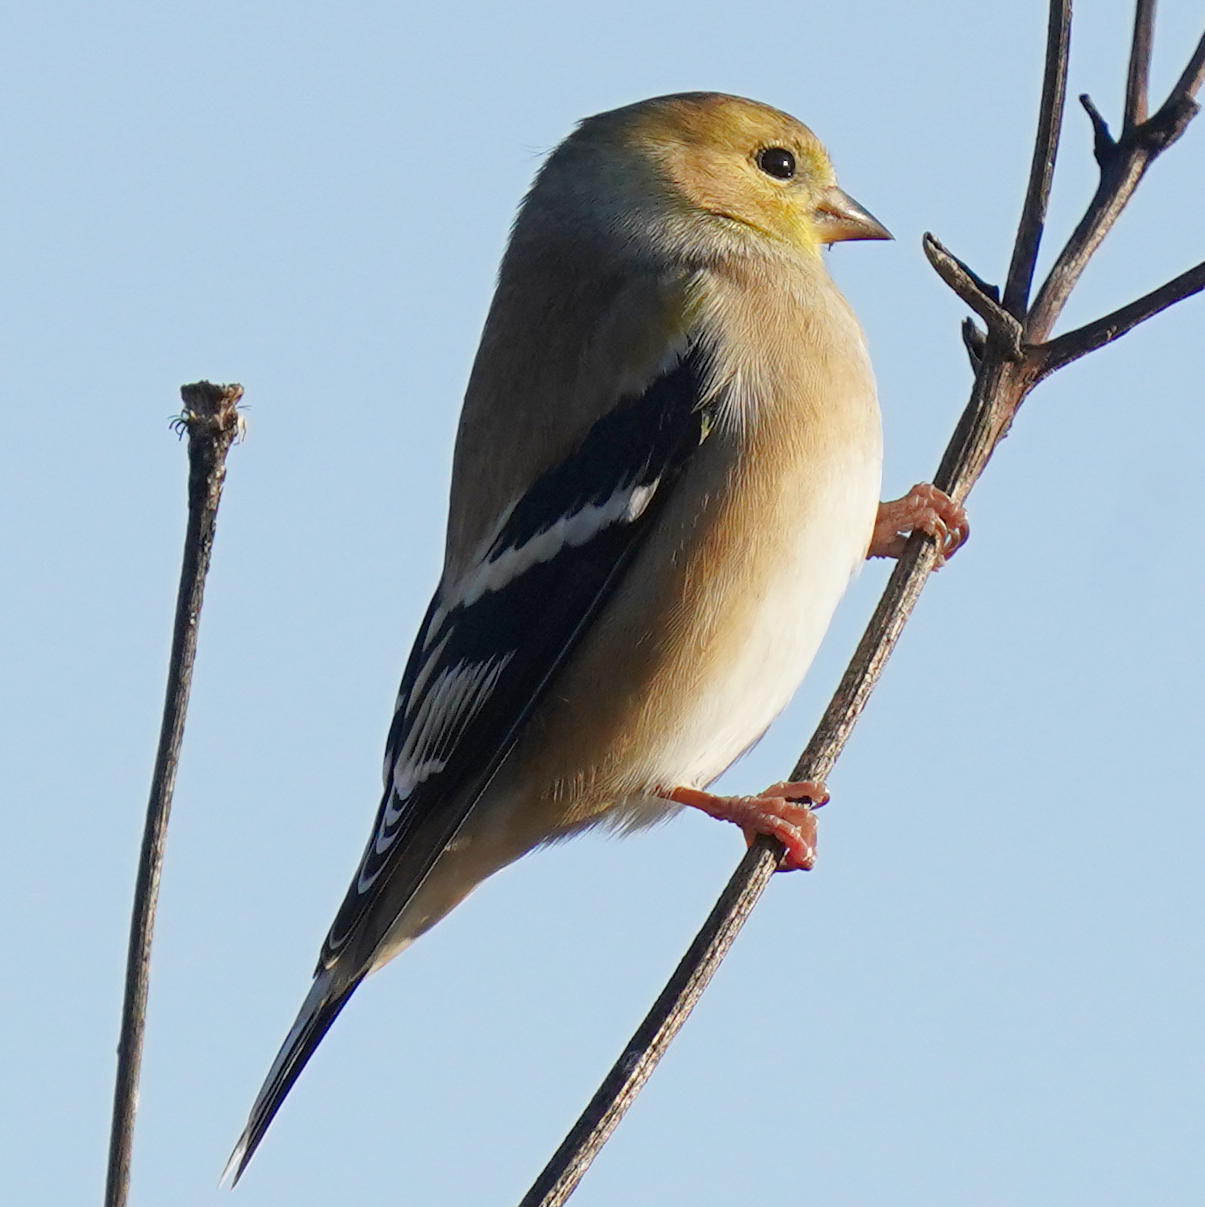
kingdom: Animalia
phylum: Chordata
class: Aves
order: Passeriformes
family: Fringillidae
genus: Spinus
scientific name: Spinus tristis
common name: American goldfinch
